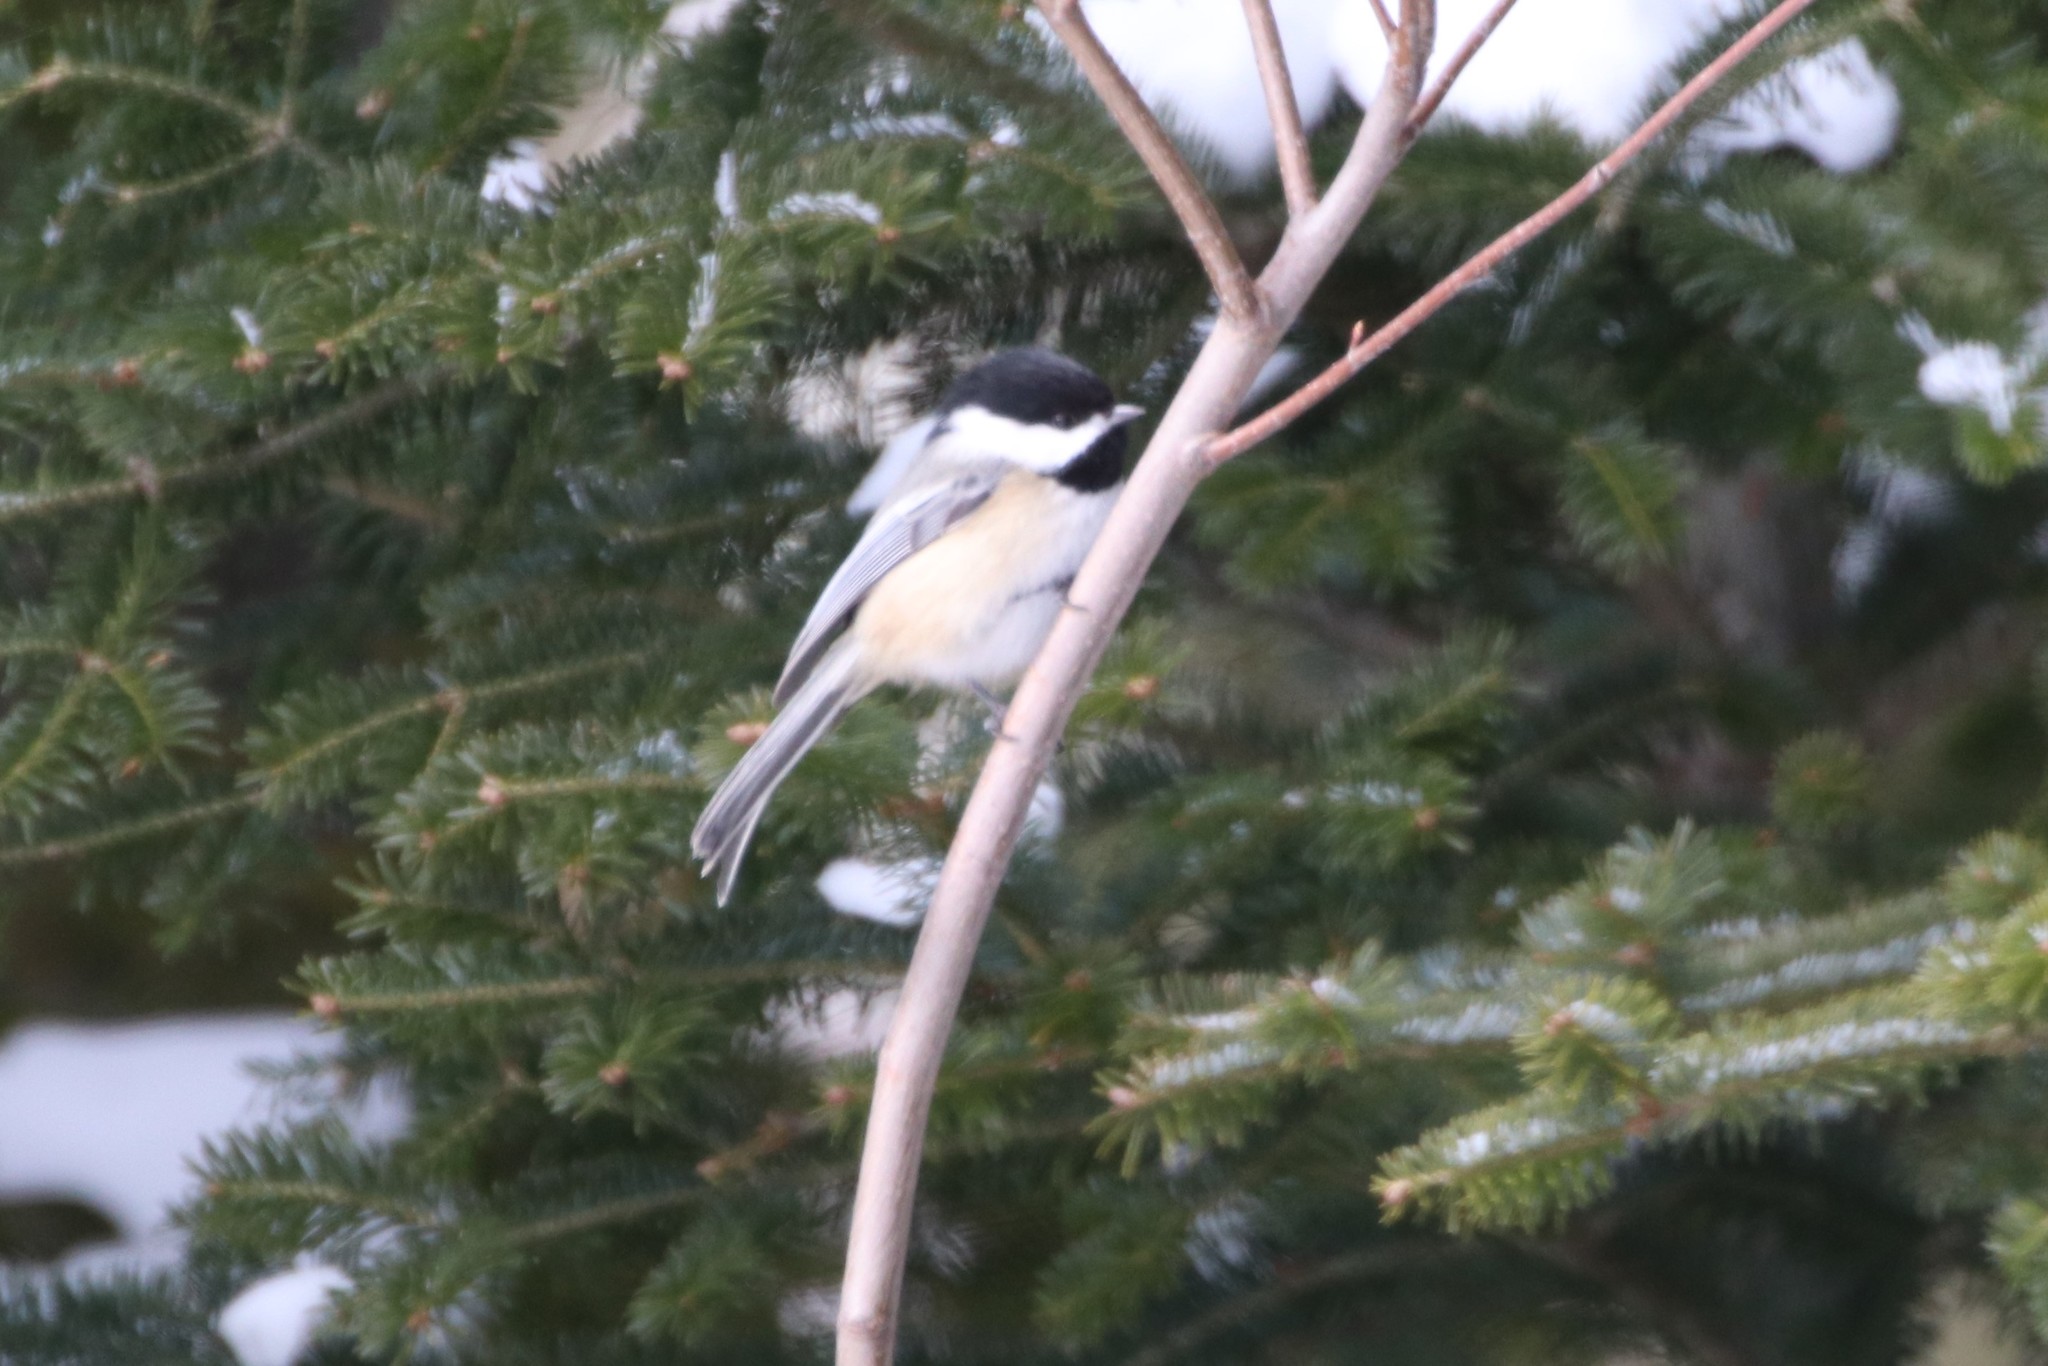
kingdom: Animalia
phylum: Chordata
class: Aves
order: Passeriformes
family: Paridae
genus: Poecile
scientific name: Poecile atricapillus
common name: Black-capped chickadee
